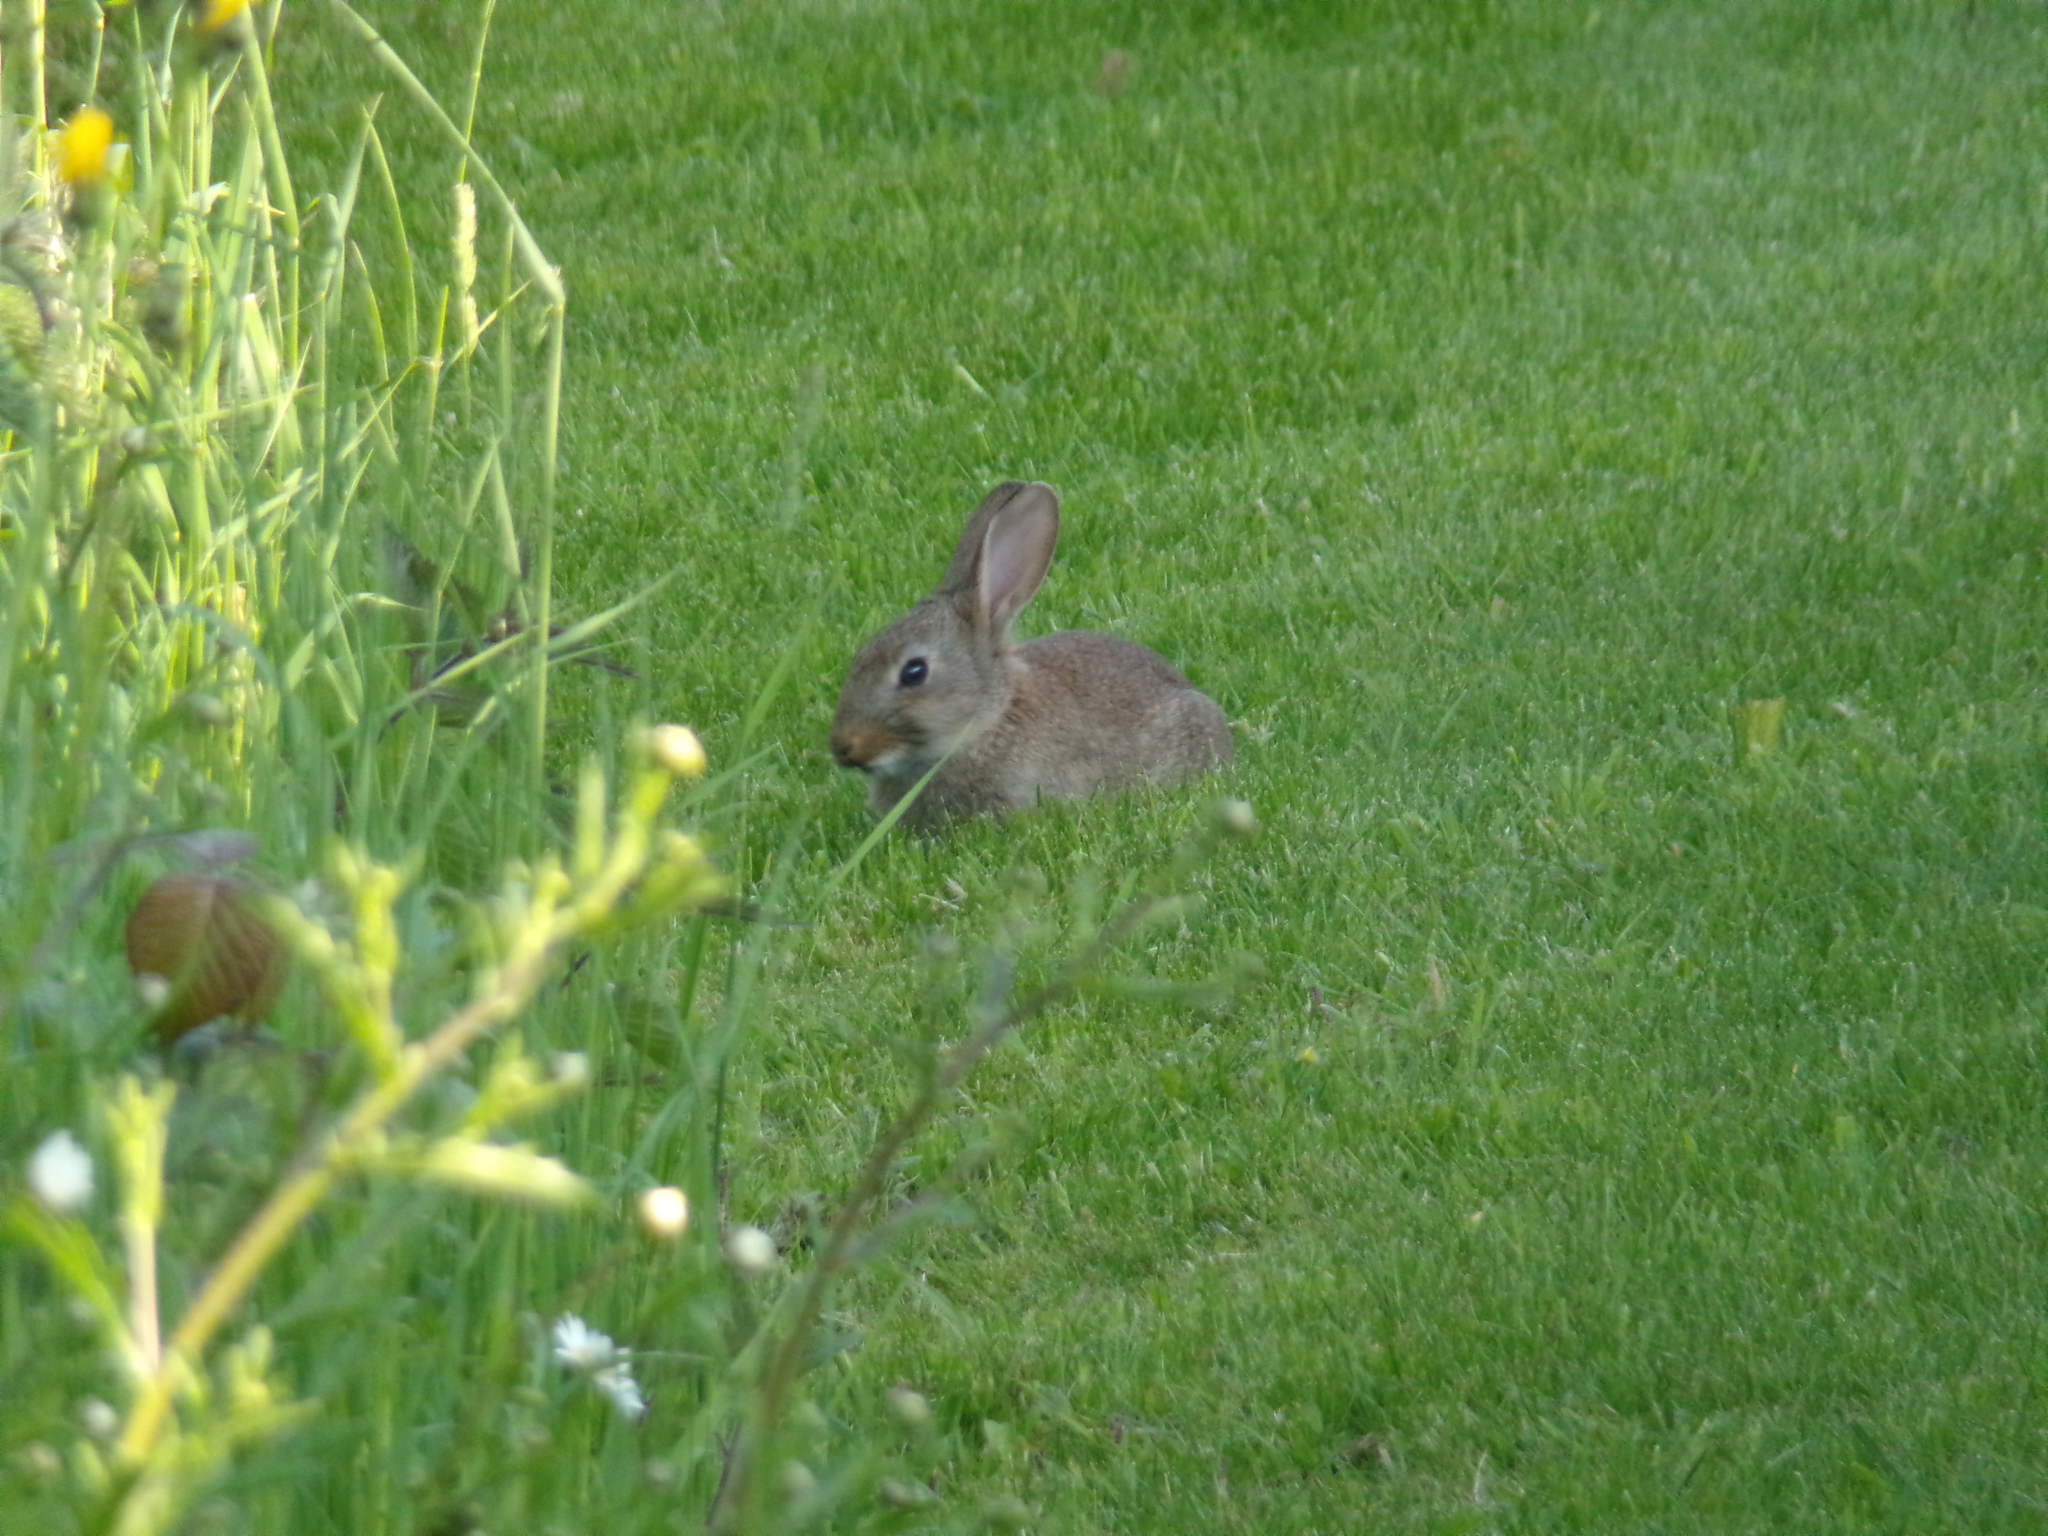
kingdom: Animalia
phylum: Chordata
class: Mammalia
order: Lagomorpha
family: Leporidae
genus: Oryctolagus
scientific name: Oryctolagus cuniculus
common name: European rabbit
